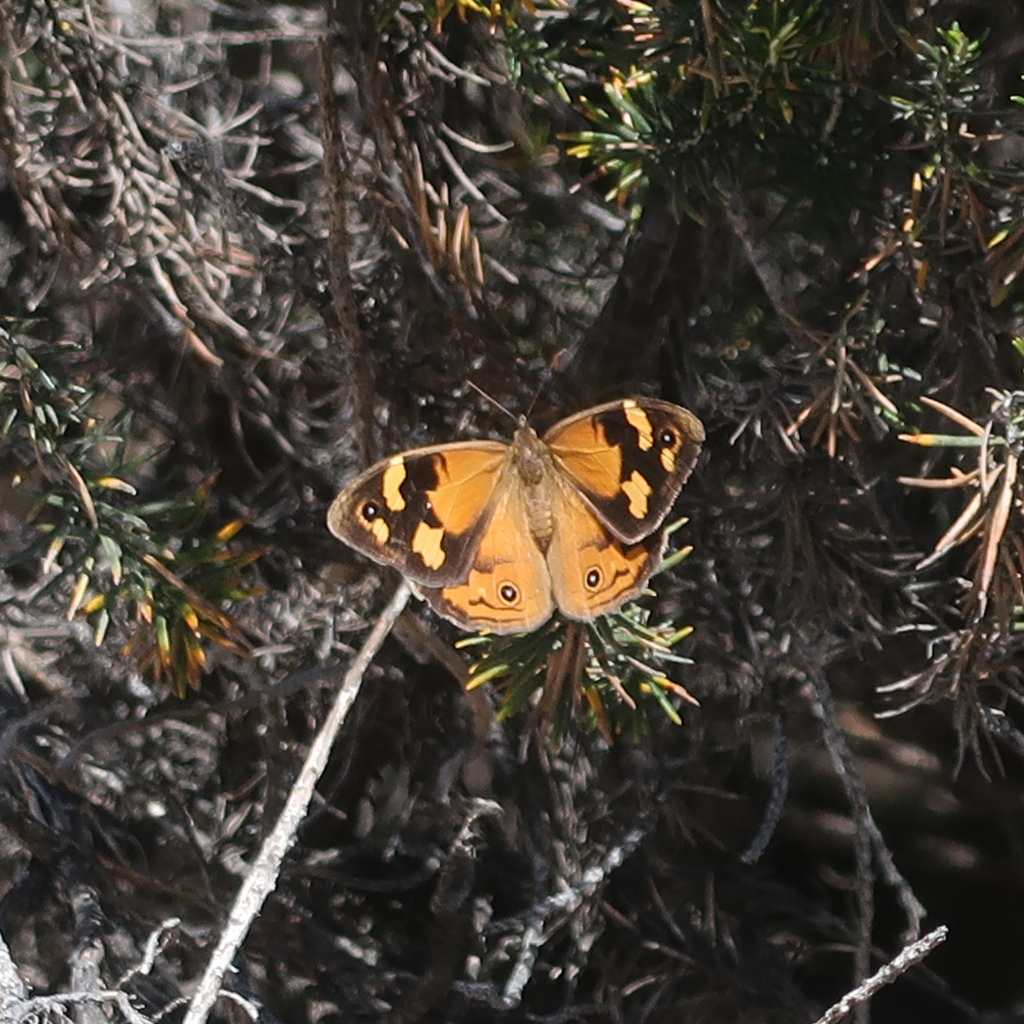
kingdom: Animalia
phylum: Arthropoda
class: Insecta
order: Lepidoptera
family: Nymphalidae
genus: Heteronympha
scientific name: Heteronympha merope
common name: Common brown
